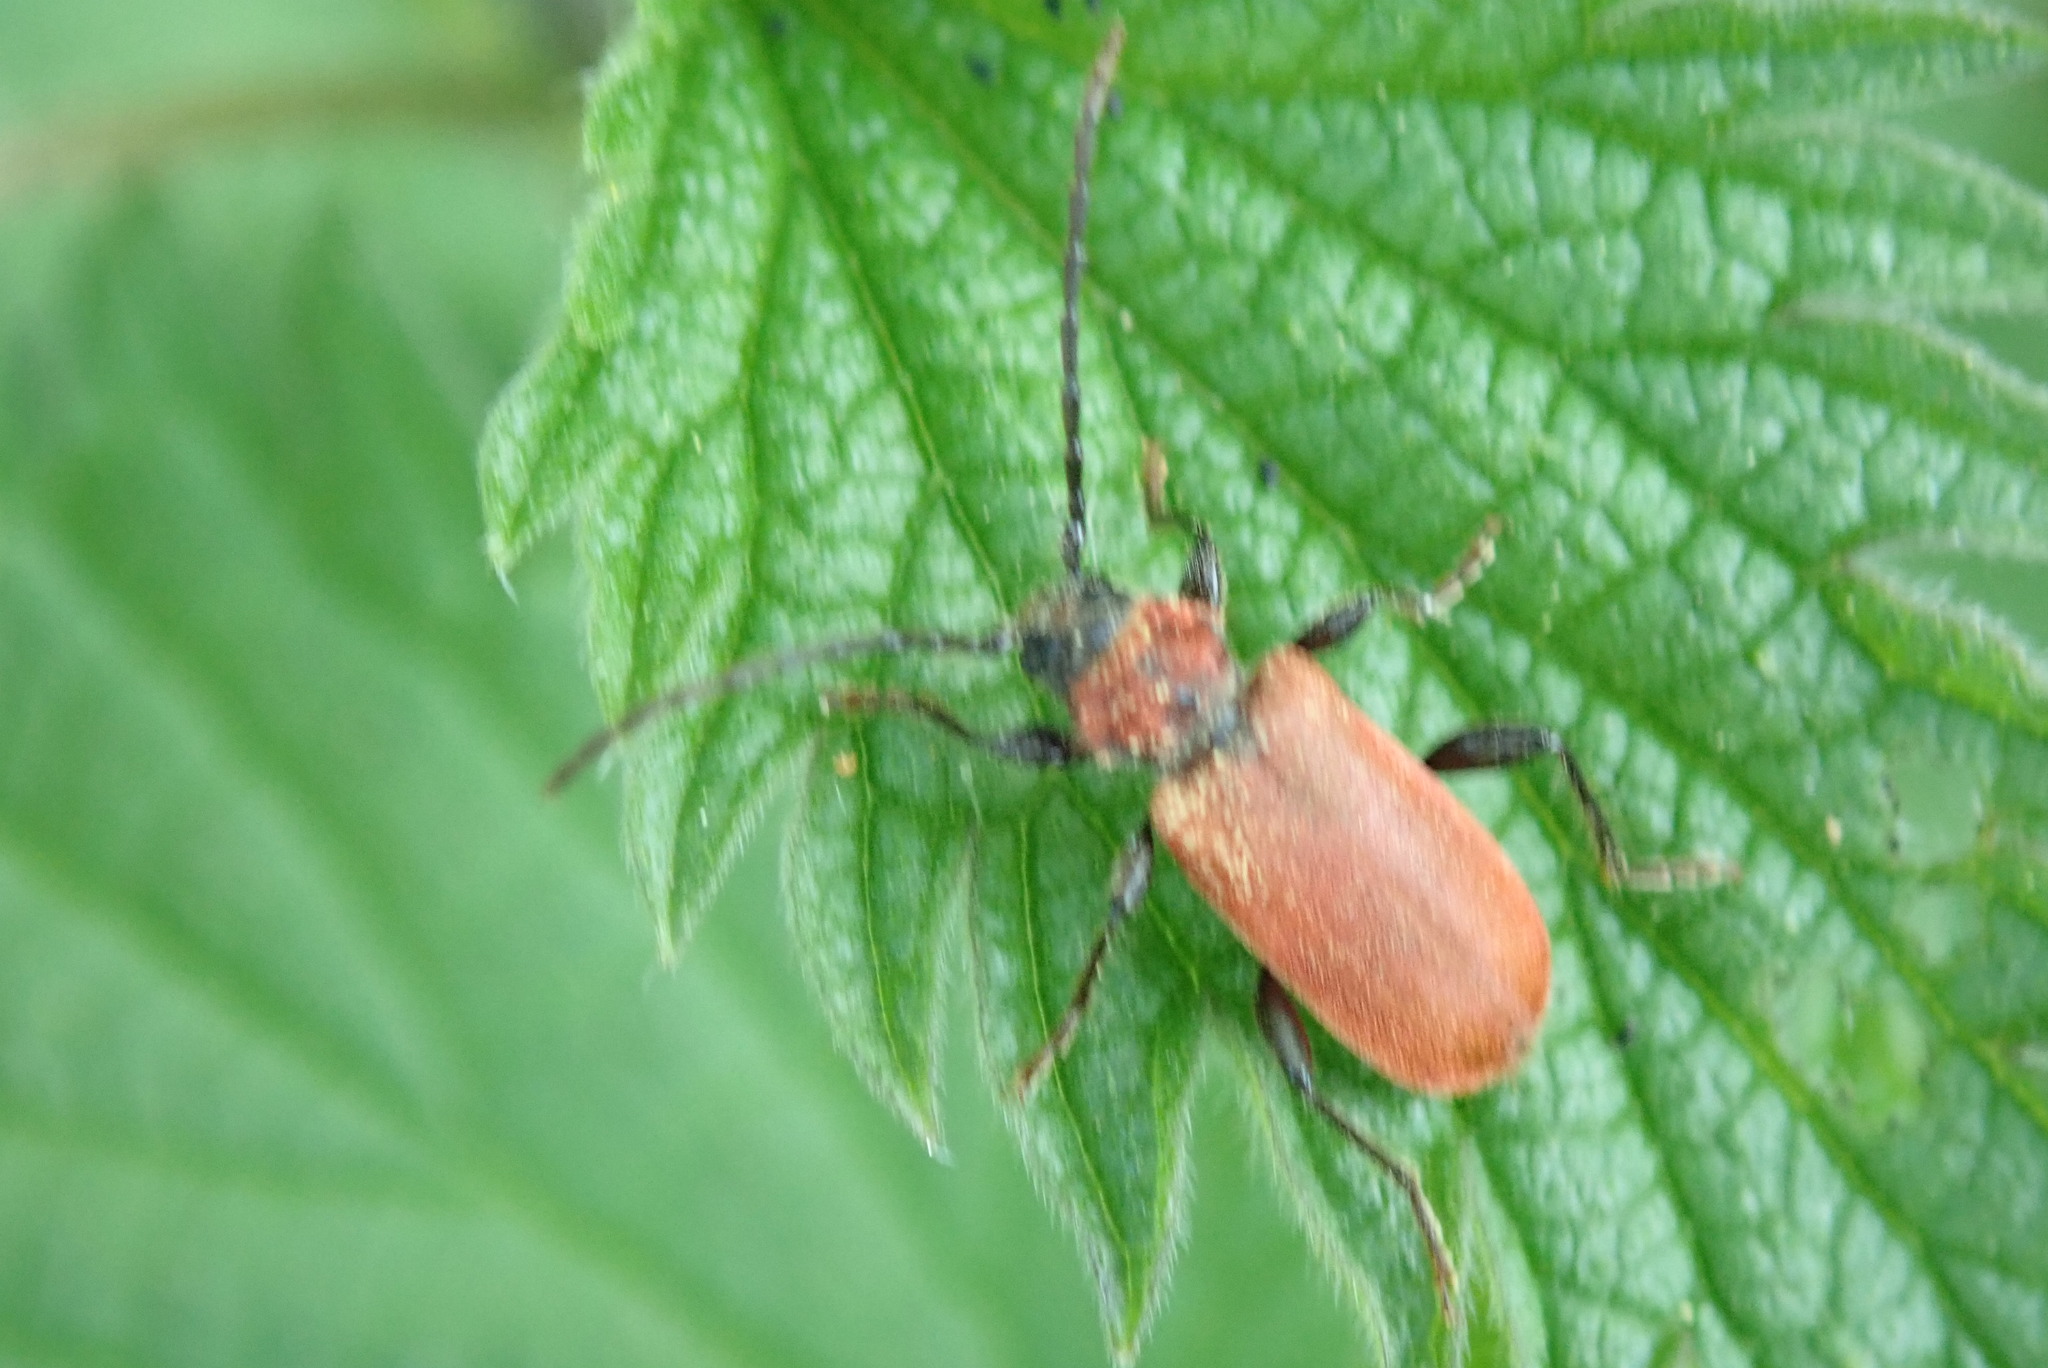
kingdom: Animalia
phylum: Arthropoda
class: Insecta
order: Coleoptera
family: Cerambycidae
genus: Pyrrhidium
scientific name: Pyrrhidium sanguineum
